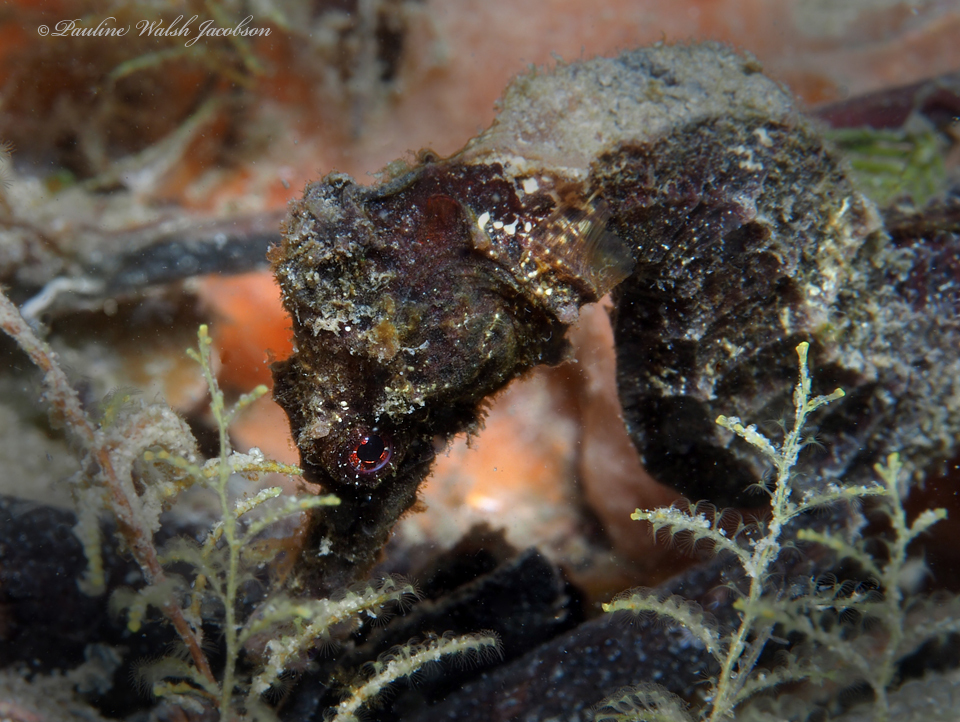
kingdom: Animalia
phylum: Chordata
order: Syngnathiformes
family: Syngnathidae
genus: Hippocampus
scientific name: Hippocampus reidi
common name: Slender seahorse
